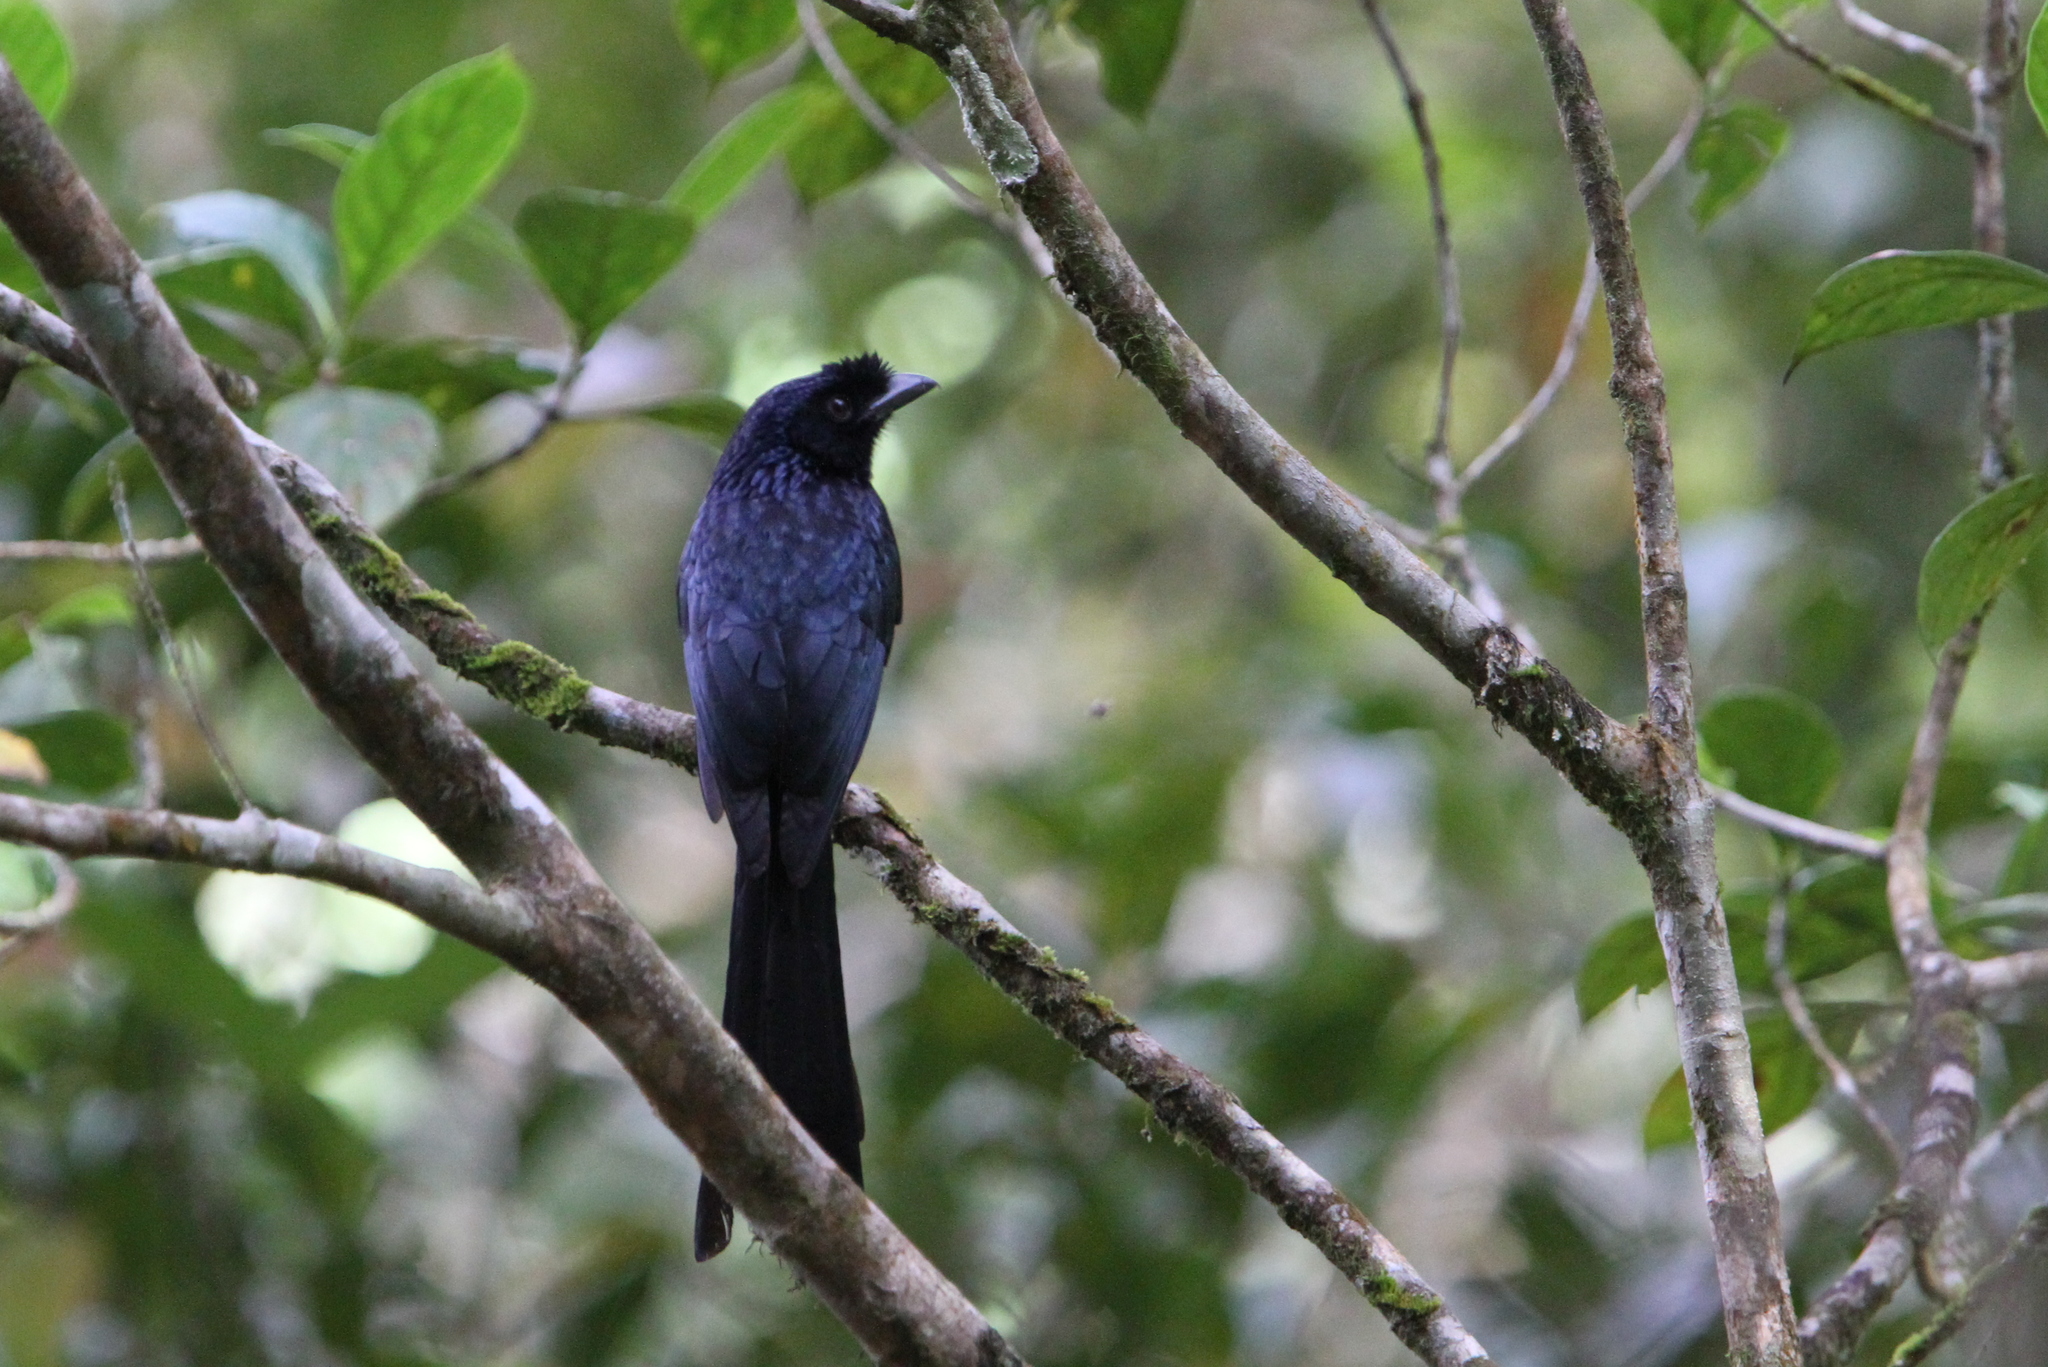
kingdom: Animalia
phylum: Chordata
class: Aves
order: Passeriformes
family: Dicruridae
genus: Dicrurus
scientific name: Dicrurus lophorinus
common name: Sri lanka drongo
